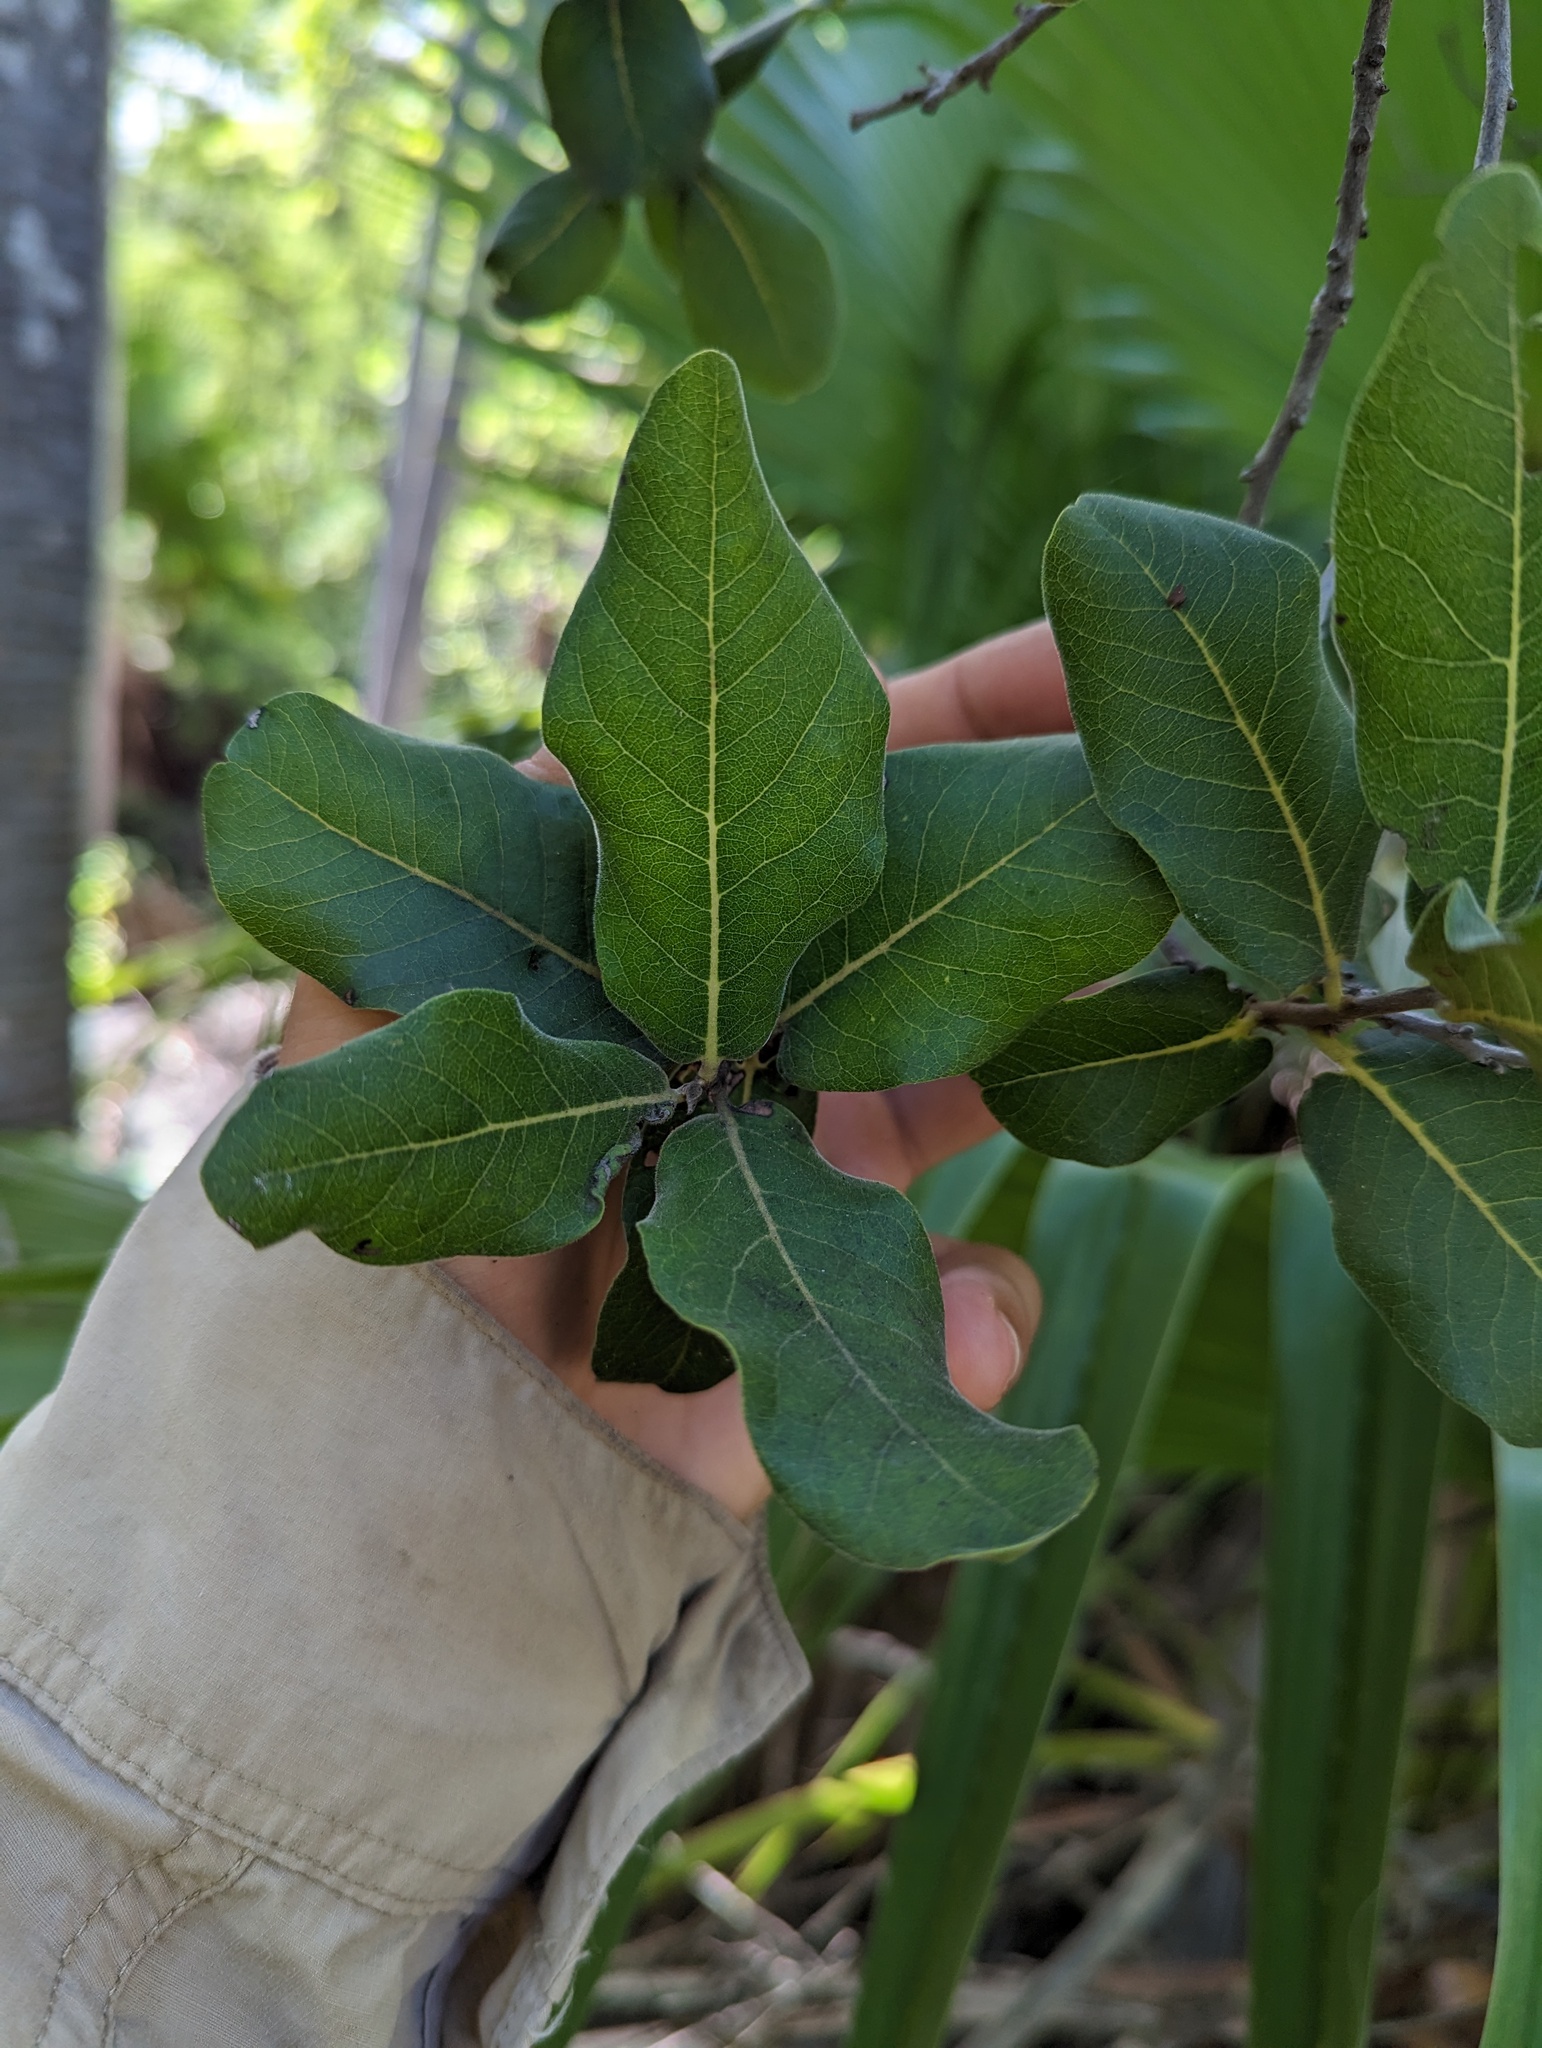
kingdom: Plantae
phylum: Tracheophyta
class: Magnoliopsida
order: Ericales
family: Ebenaceae
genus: Diospyros
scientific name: Diospyros californica
